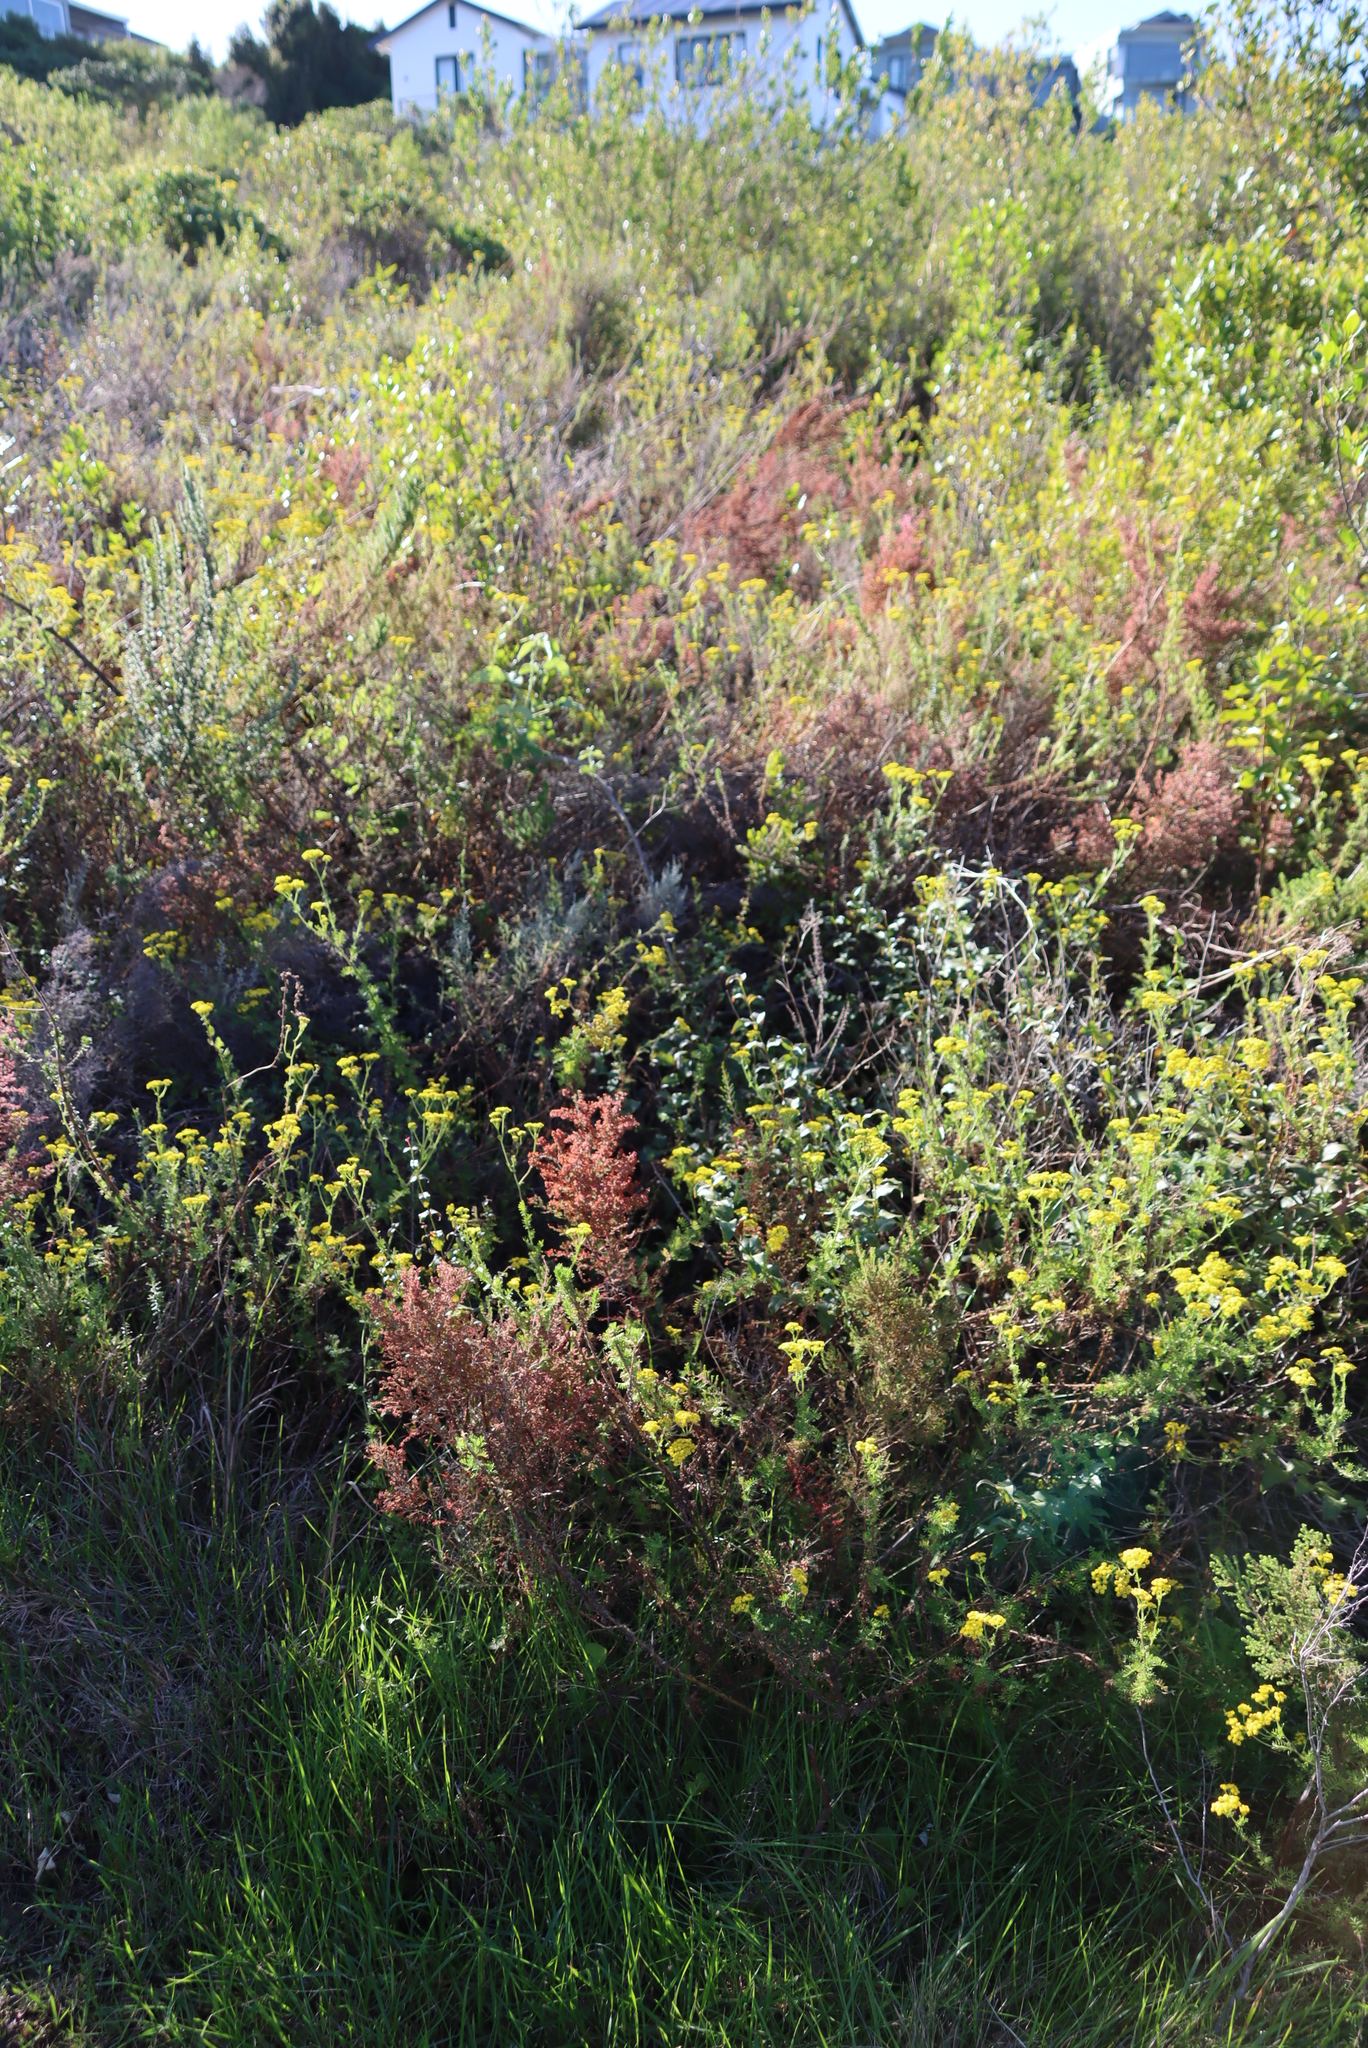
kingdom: Plantae
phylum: Tracheophyta
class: Magnoliopsida
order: Ericales
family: Ericaceae
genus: Erica
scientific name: Erica peltata
